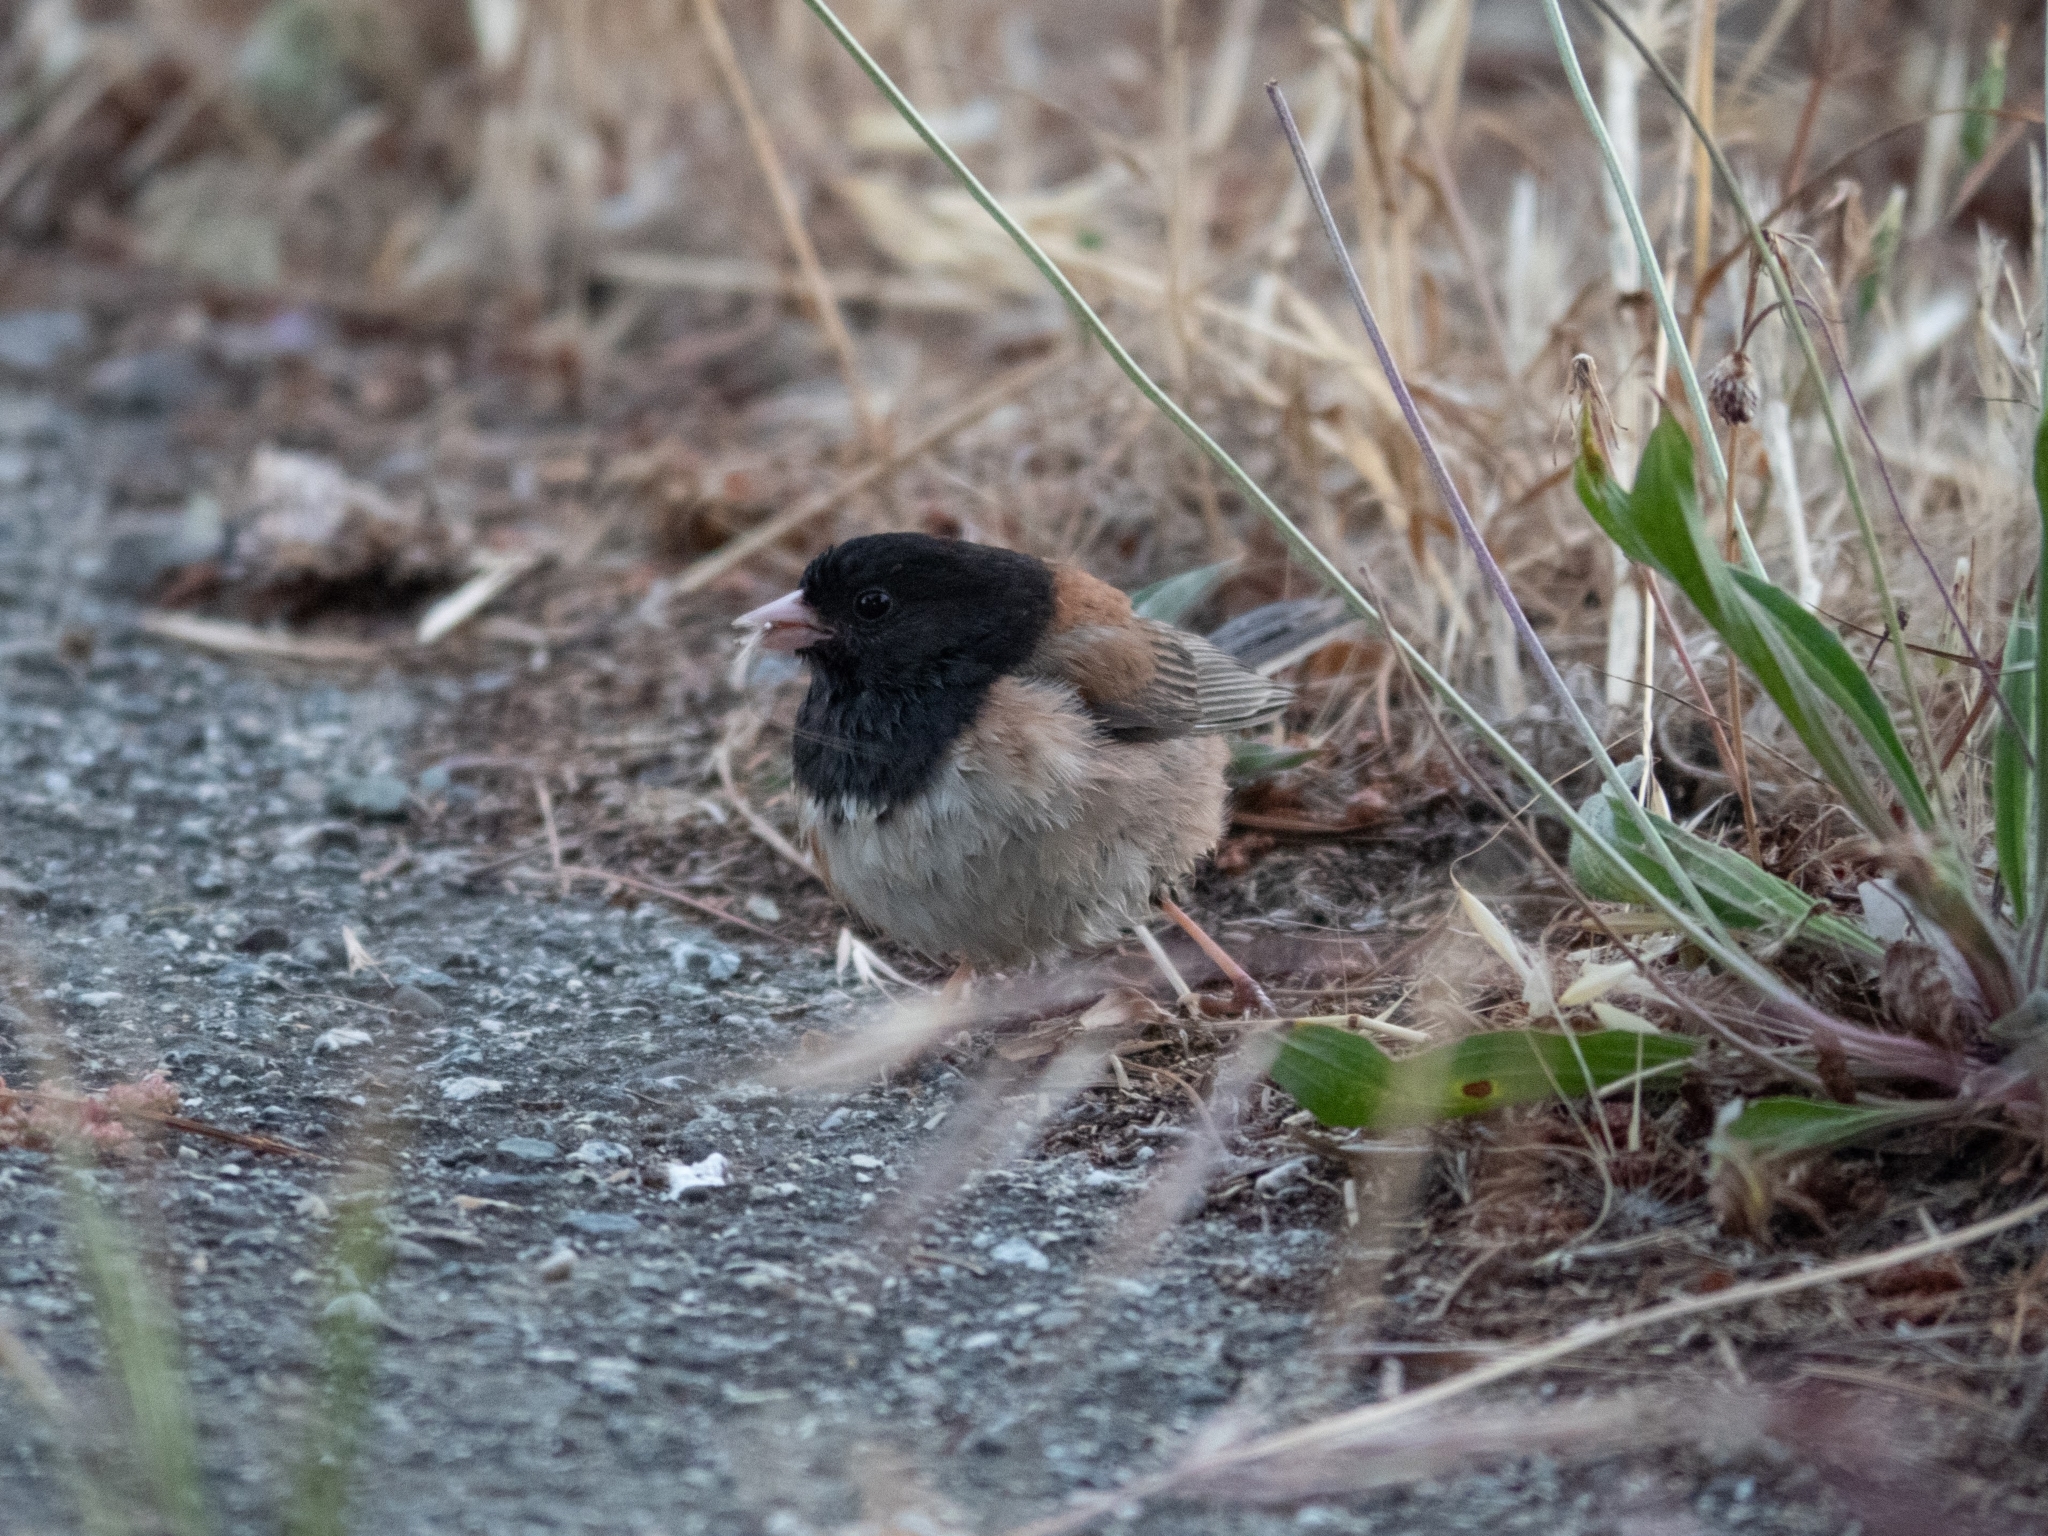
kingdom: Animalia
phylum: Chordata
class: Aves
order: Passeriformes
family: Passerellidae
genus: Junco
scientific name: Junco hyemalis
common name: Dark-eyed junco
